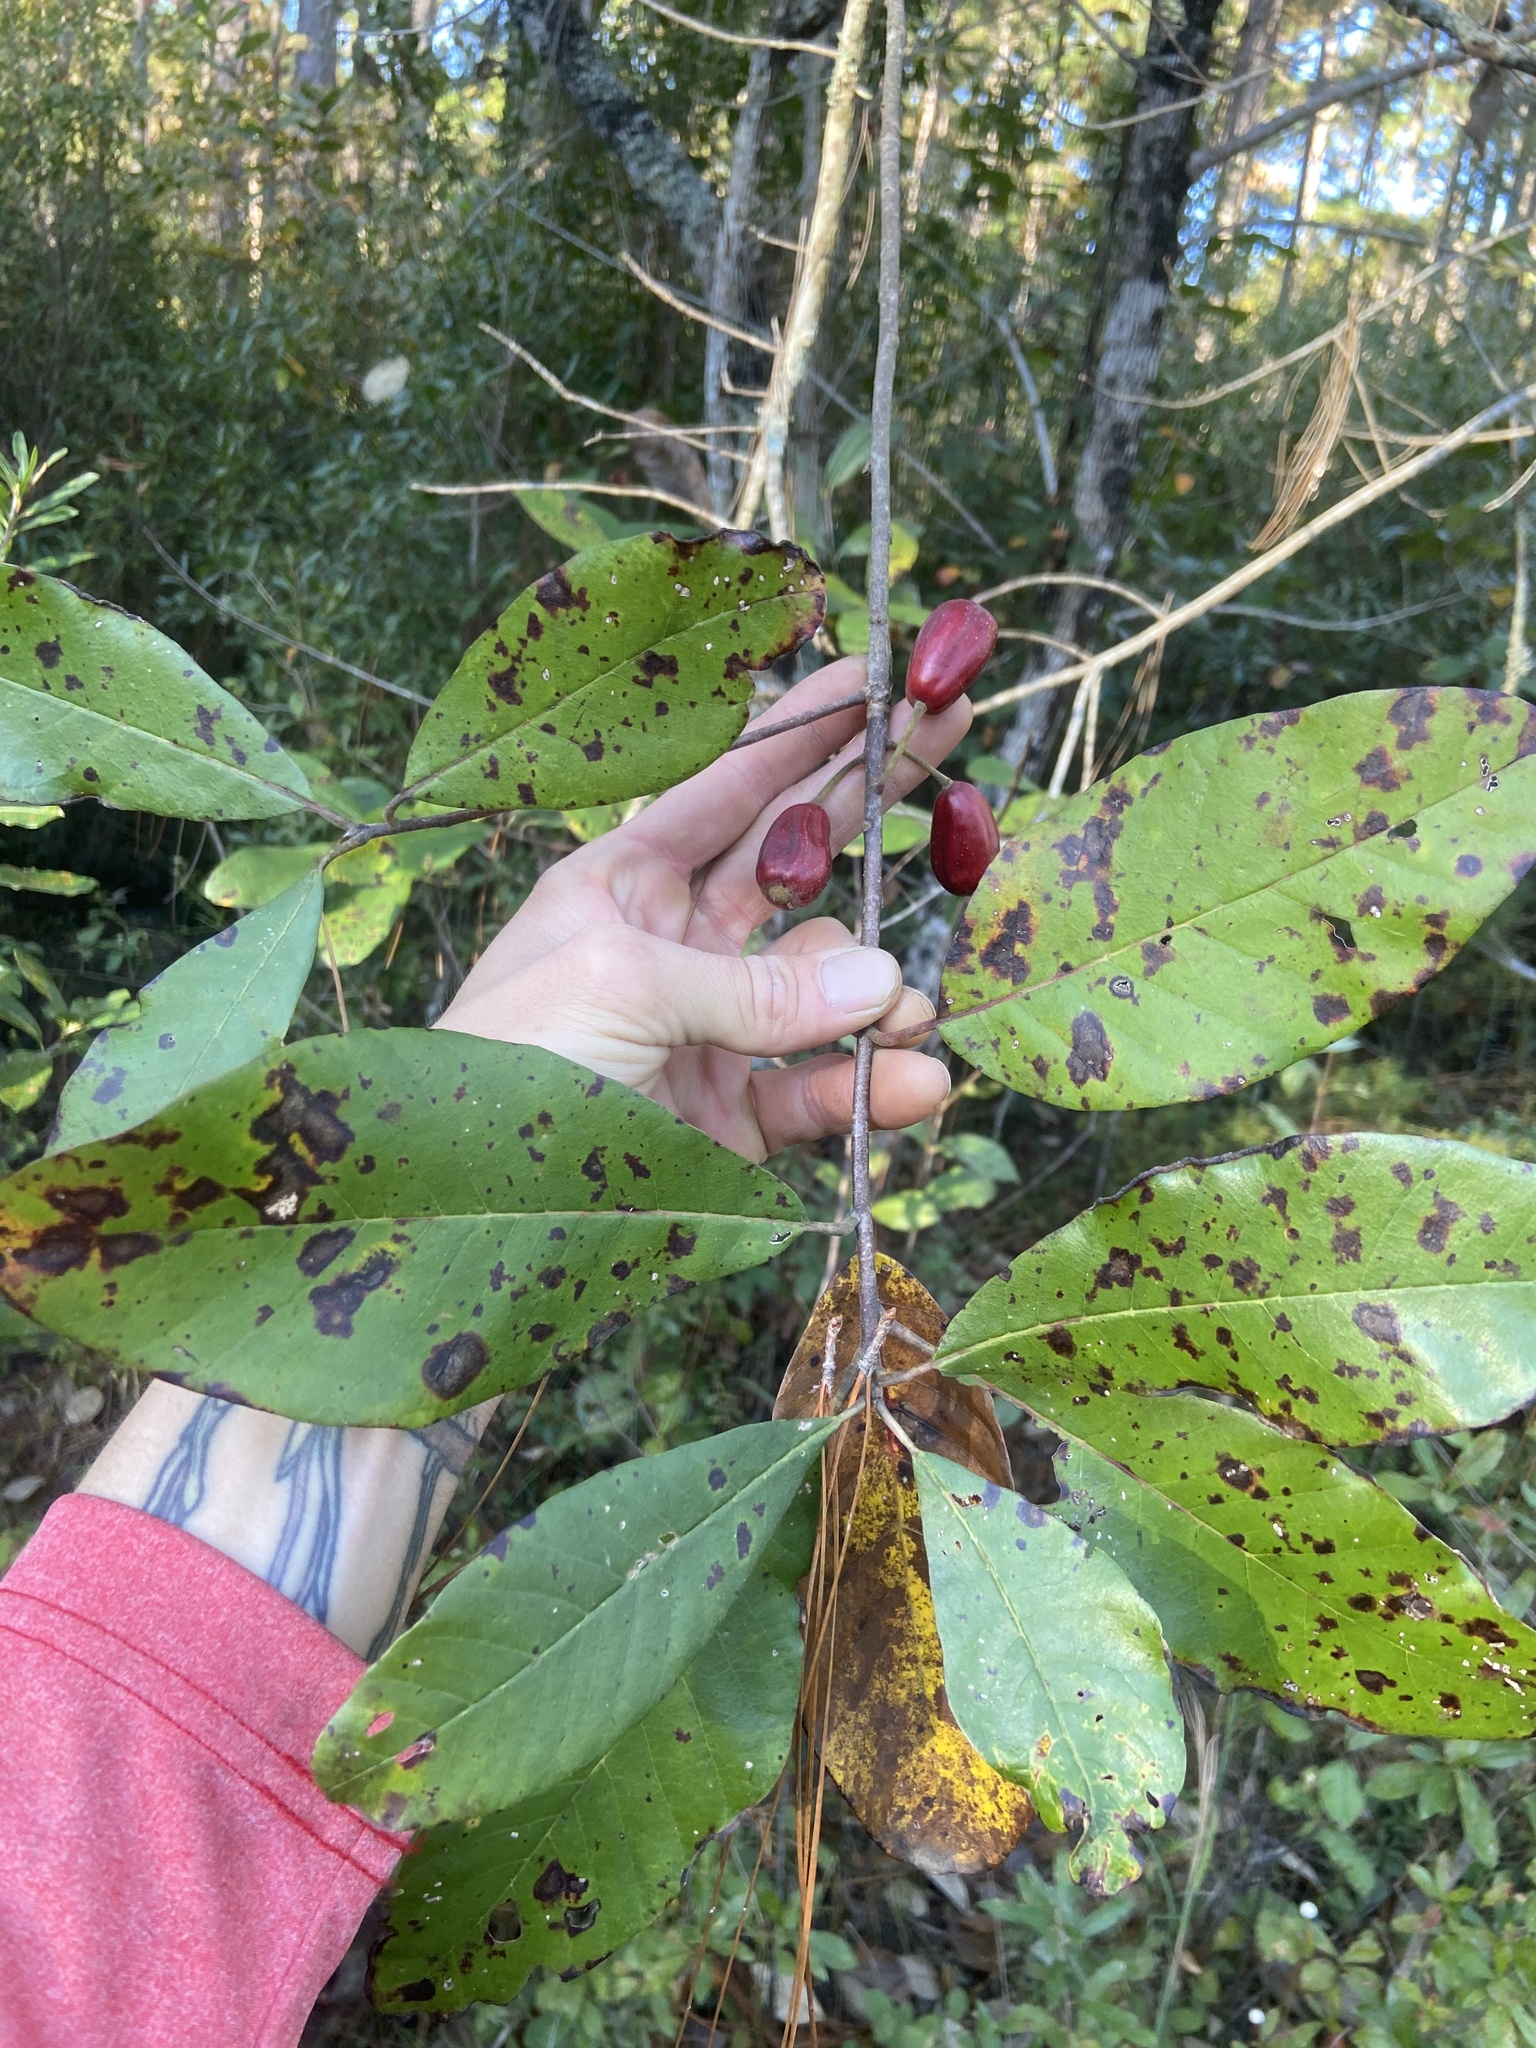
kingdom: Plantae
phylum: Tracheophyta
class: Magnoliopsida
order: Cornales
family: Nyssaceae
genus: Nyssa
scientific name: Nyssa ogeche
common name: Ogeechee tupelo
